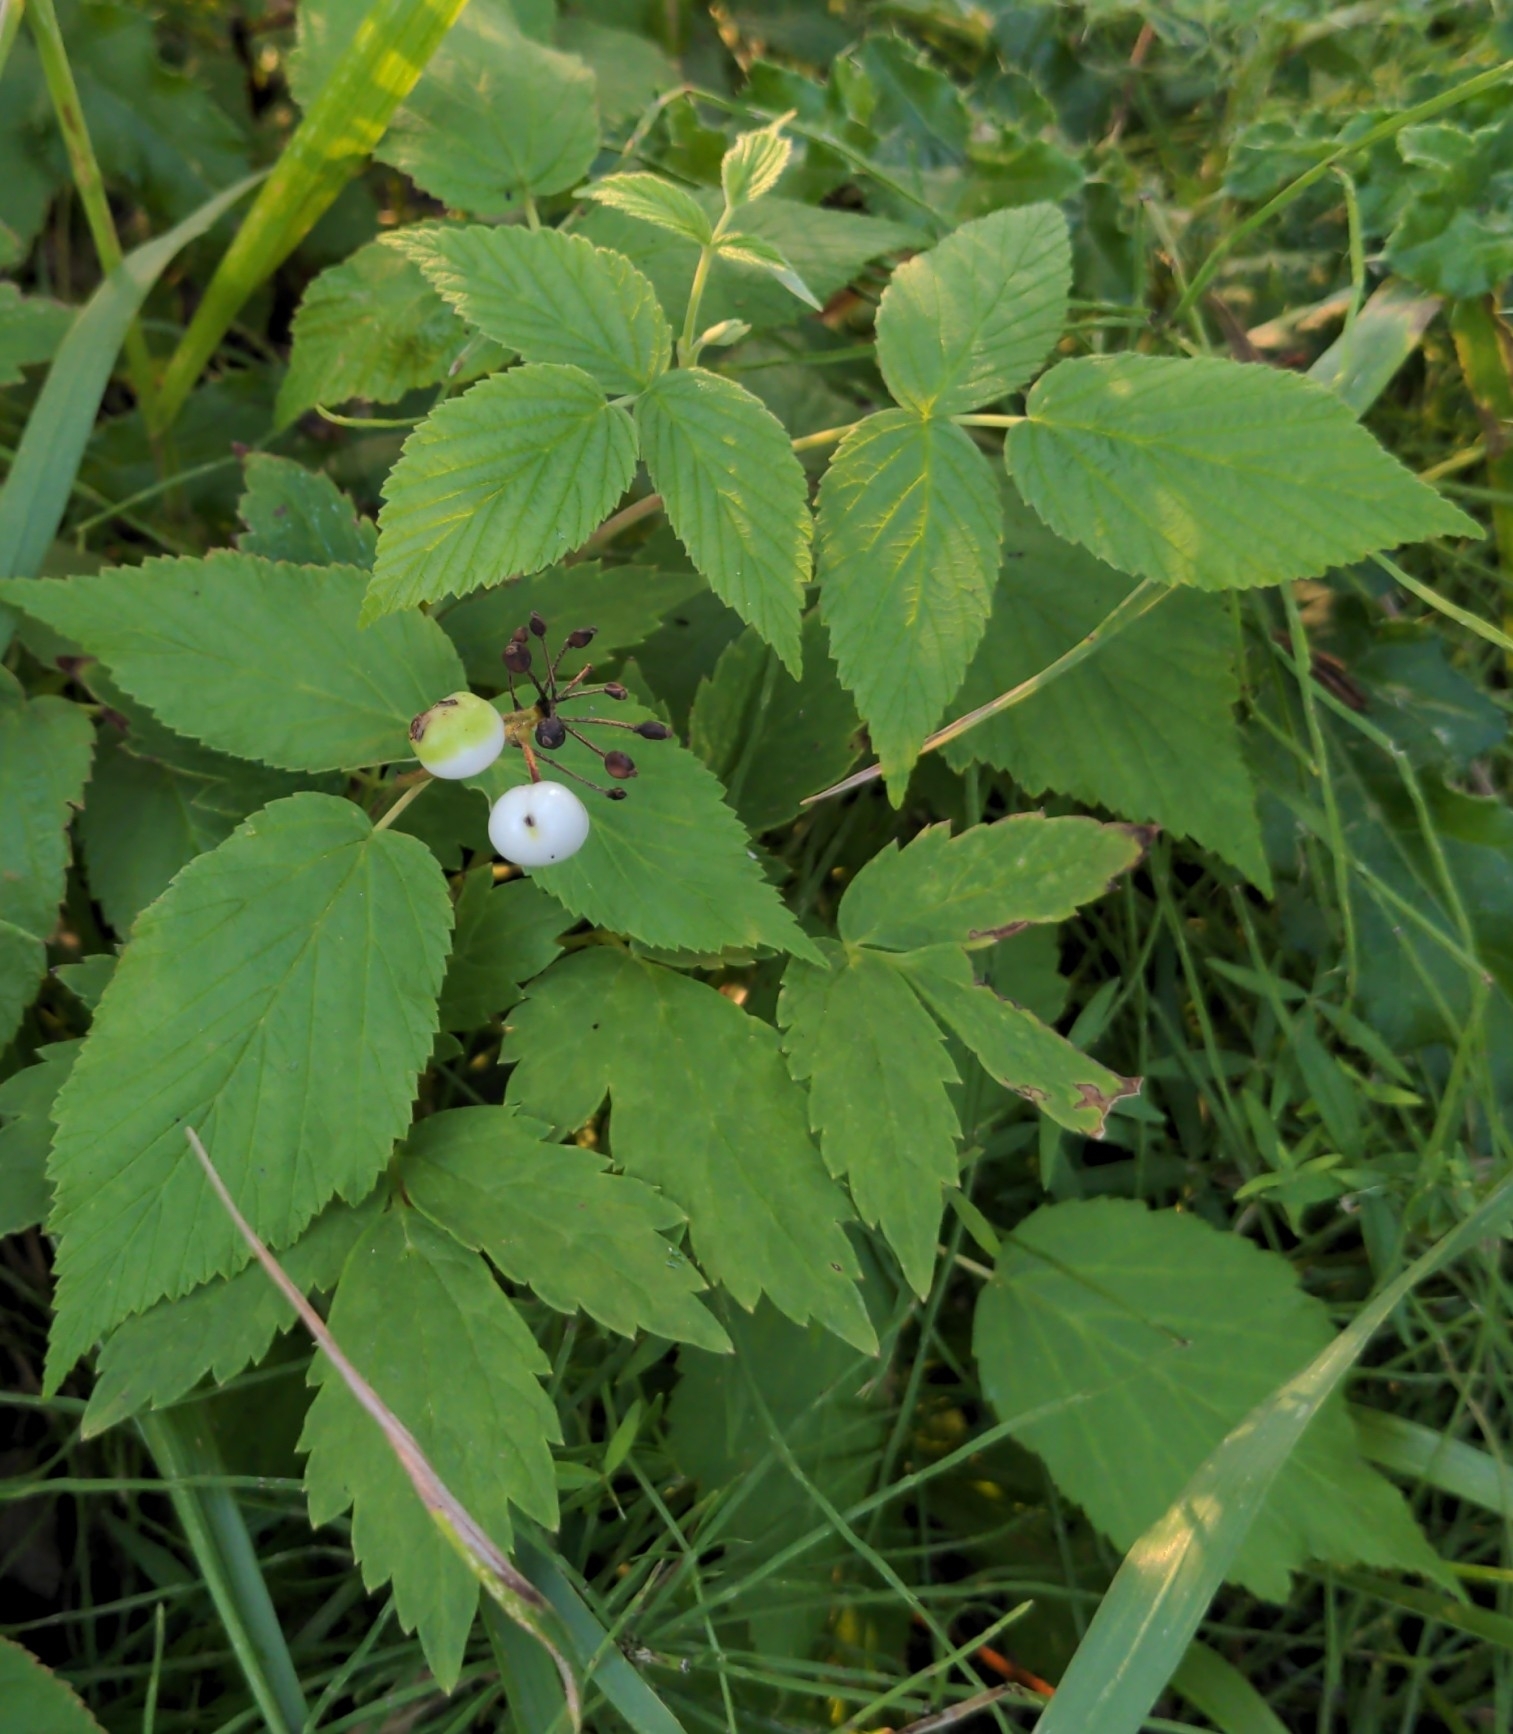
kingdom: Plantae
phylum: Tracheophyta
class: Magnoliopsida
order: Ranunculales
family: Ranunculaceae
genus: Actaea
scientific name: Actaea rubra
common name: Red baneberry
